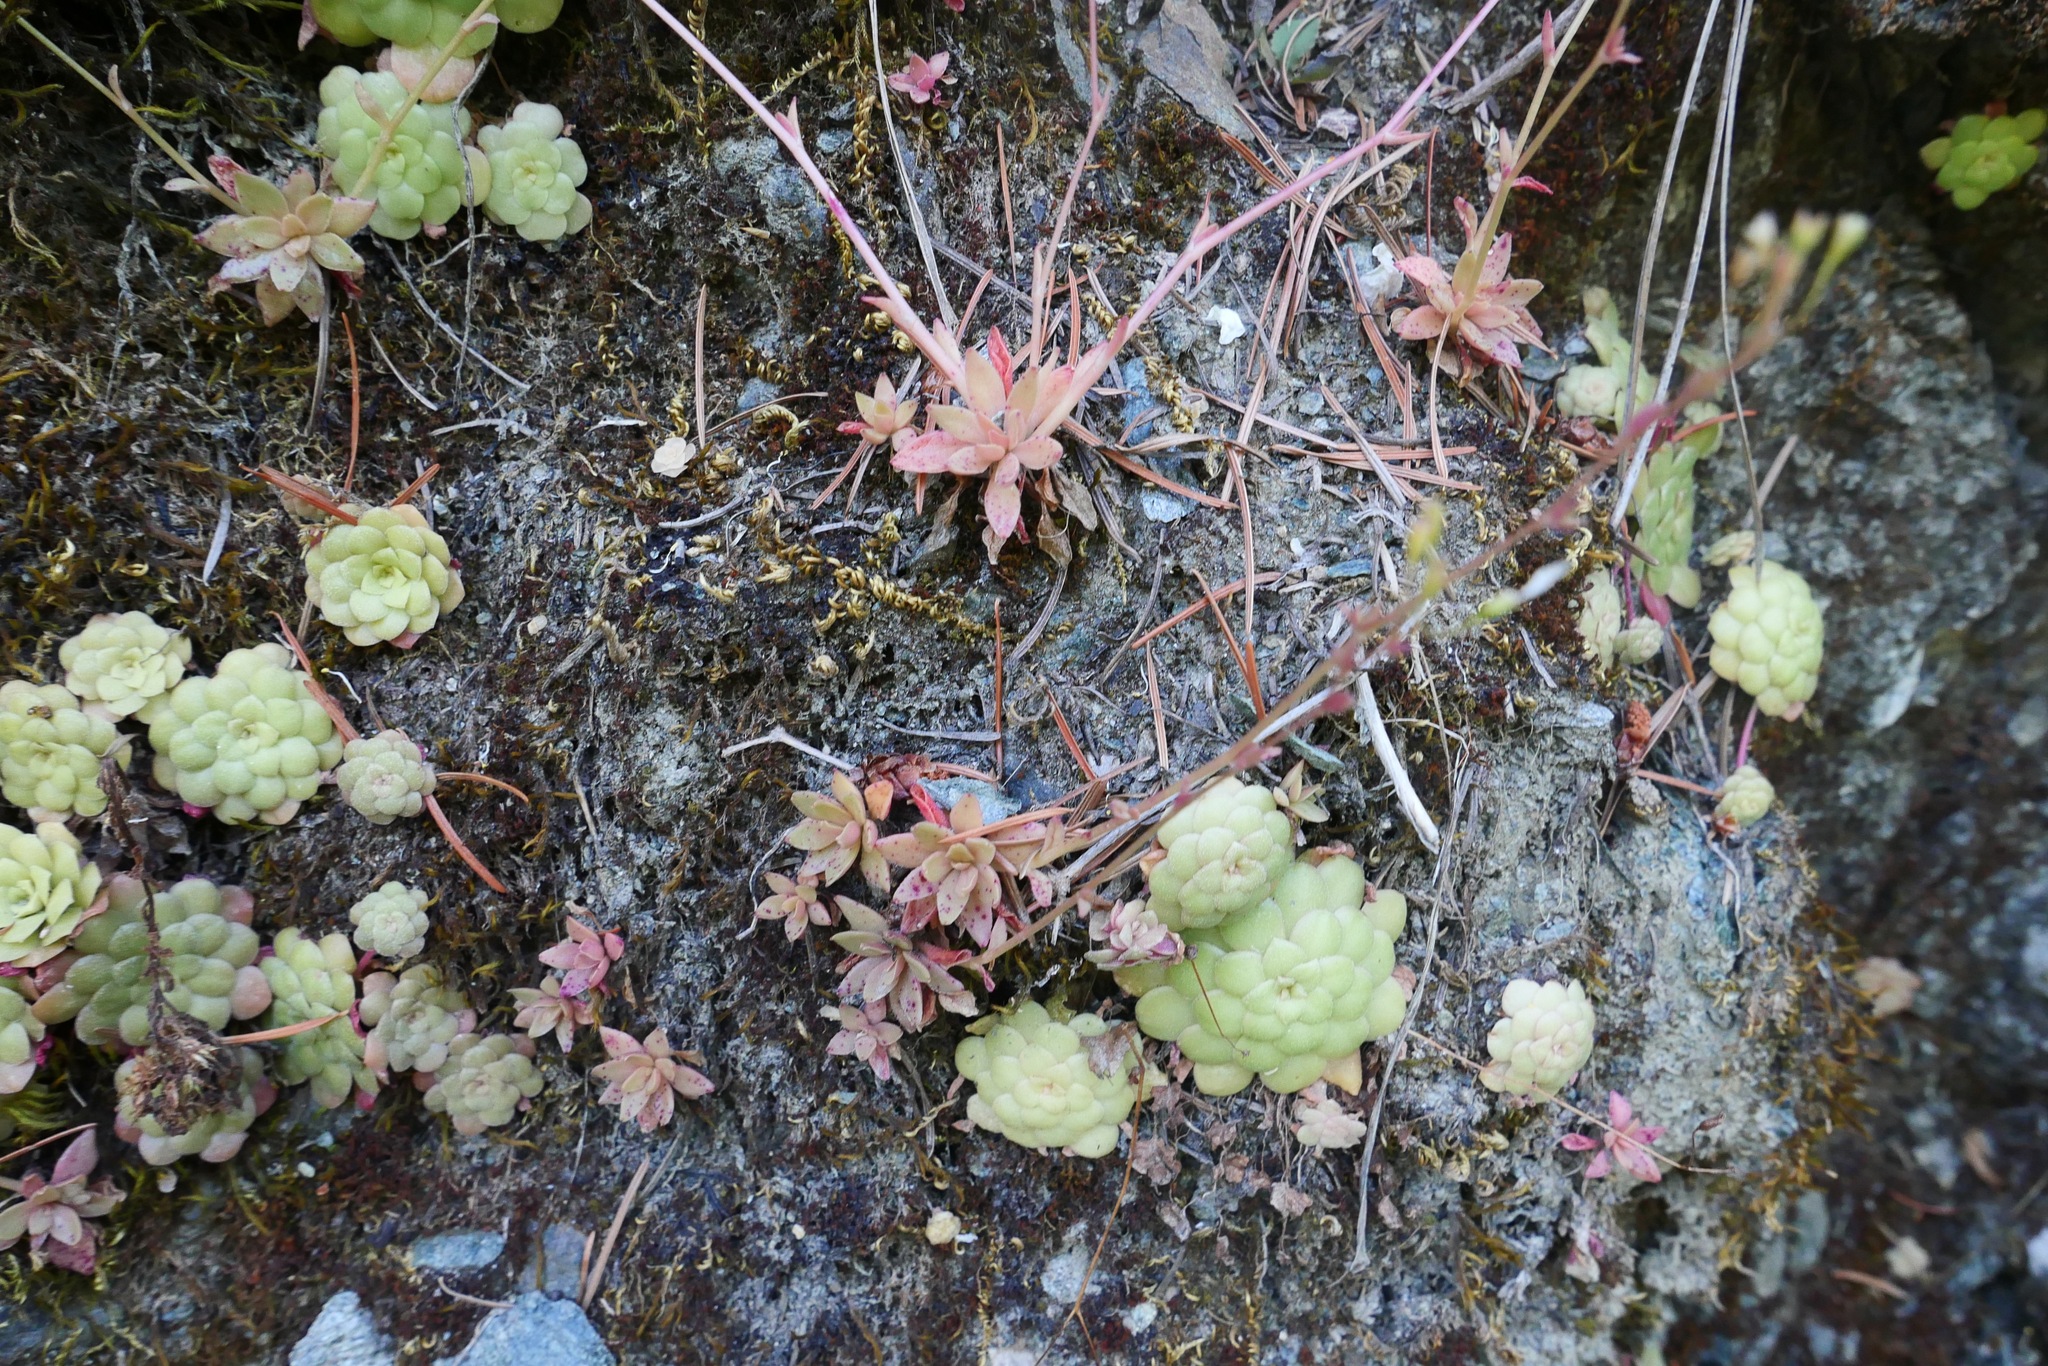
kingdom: Plantae
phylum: Tracheophyta
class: Magnoliopsida
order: Saxifragales
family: Crassulaceae
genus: Sedum
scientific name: Sedum spathulifolium
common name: Colorado stonecrop
